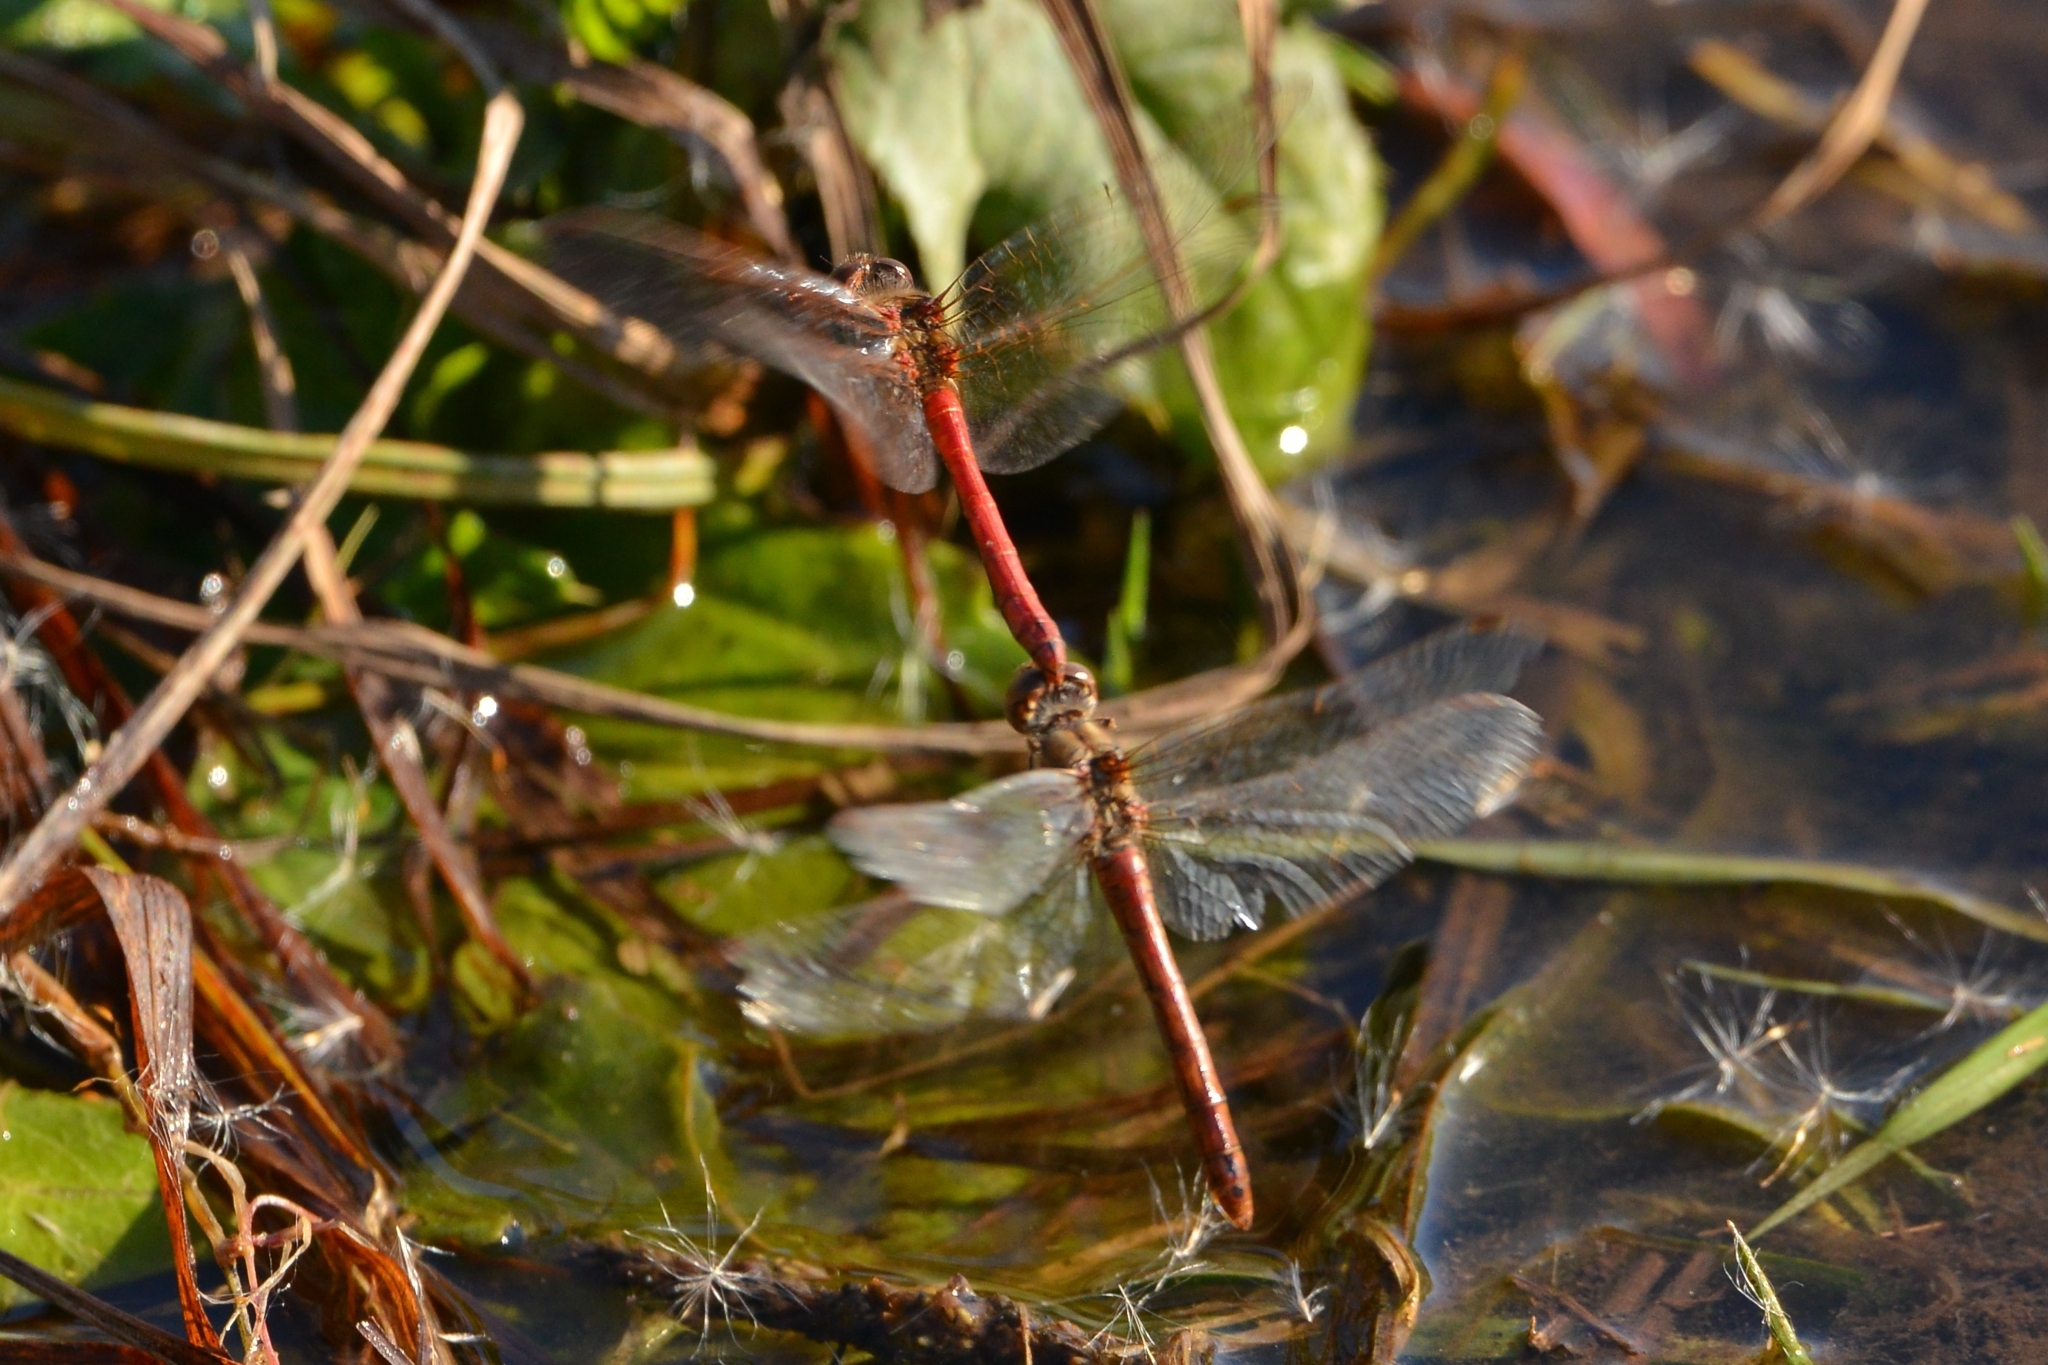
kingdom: Animalia
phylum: Arthropoda
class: Insecta
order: Odonata
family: Libellulidae
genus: Sympetrum
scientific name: Sympetrum vulgatum
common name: Vagrant darter
